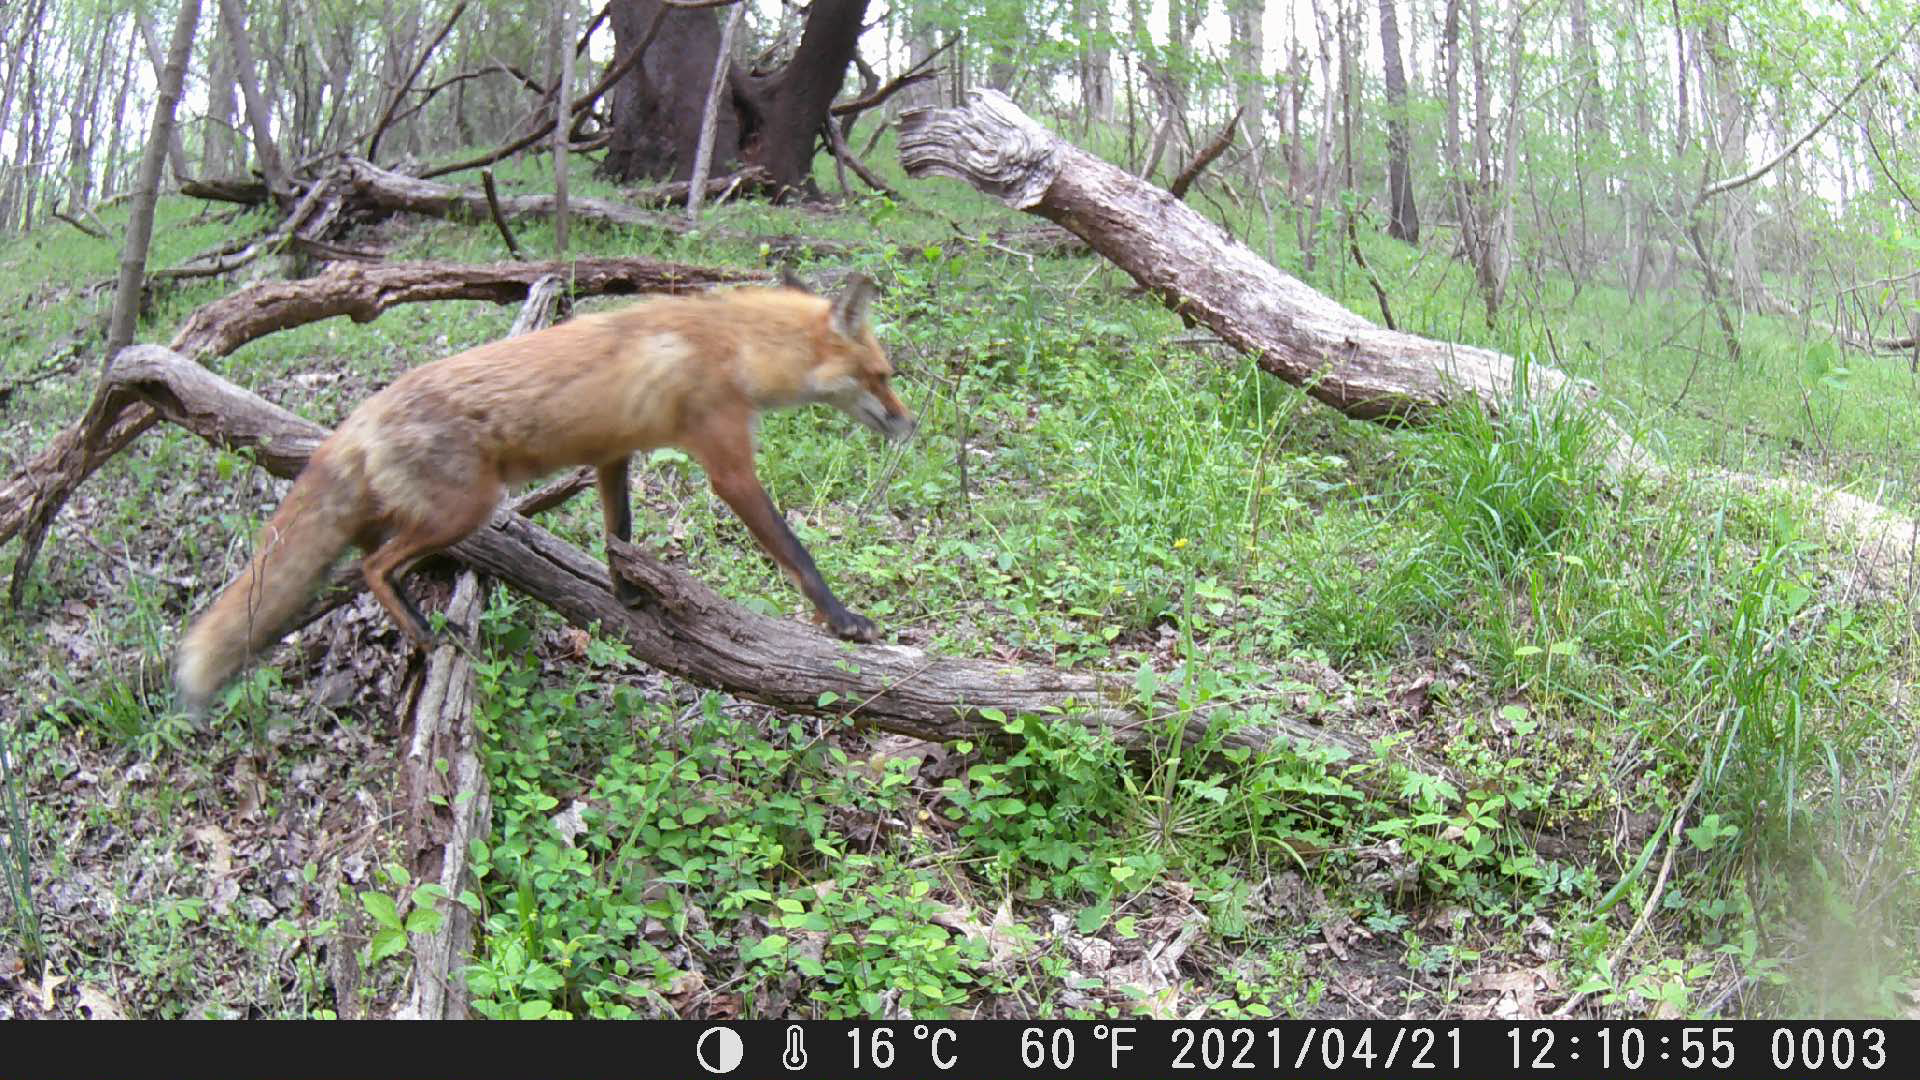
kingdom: Animalia
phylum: Chordata
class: Mammalia
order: Carnivora
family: Canidae
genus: Vulpes
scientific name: Vulpes vulpes
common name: Red fox
